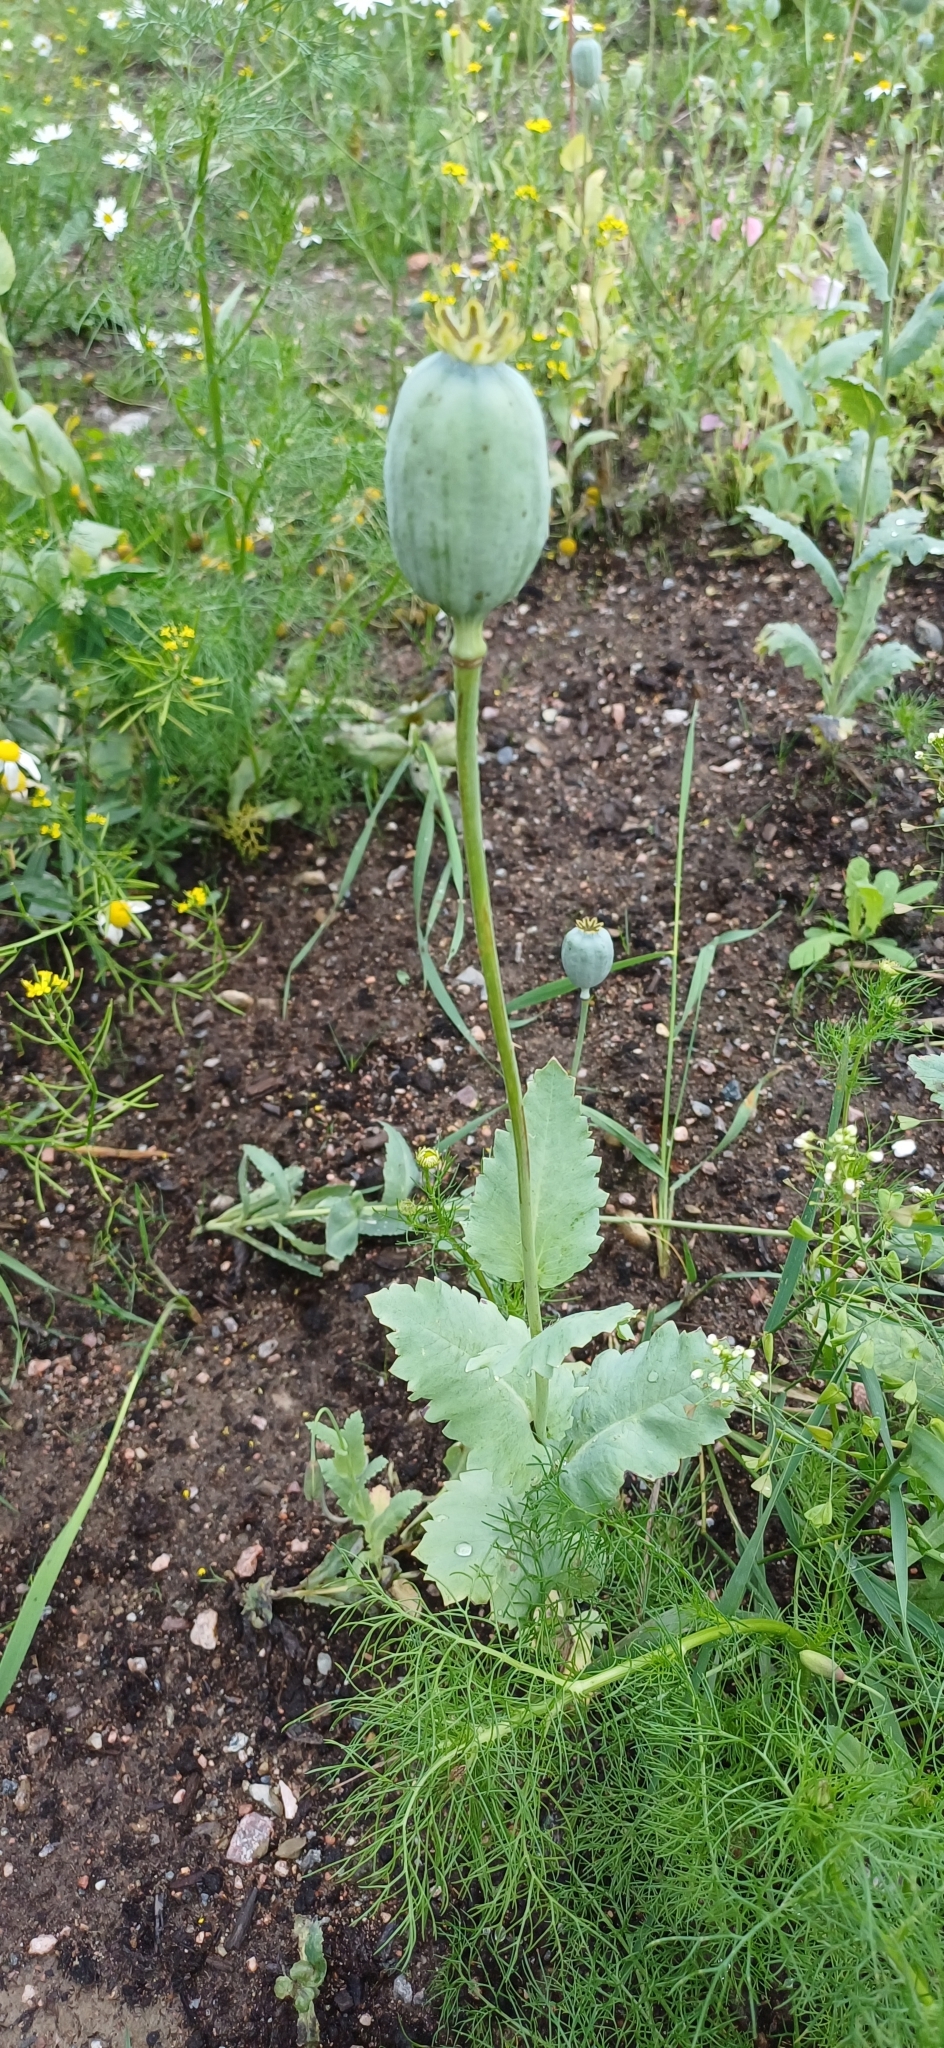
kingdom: Plantae
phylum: Tracheophyta
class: Magnoliopsida
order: Ranunculales
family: Papaveraceae
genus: Papaver
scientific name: Papaver somniferum
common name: Opium poppy
